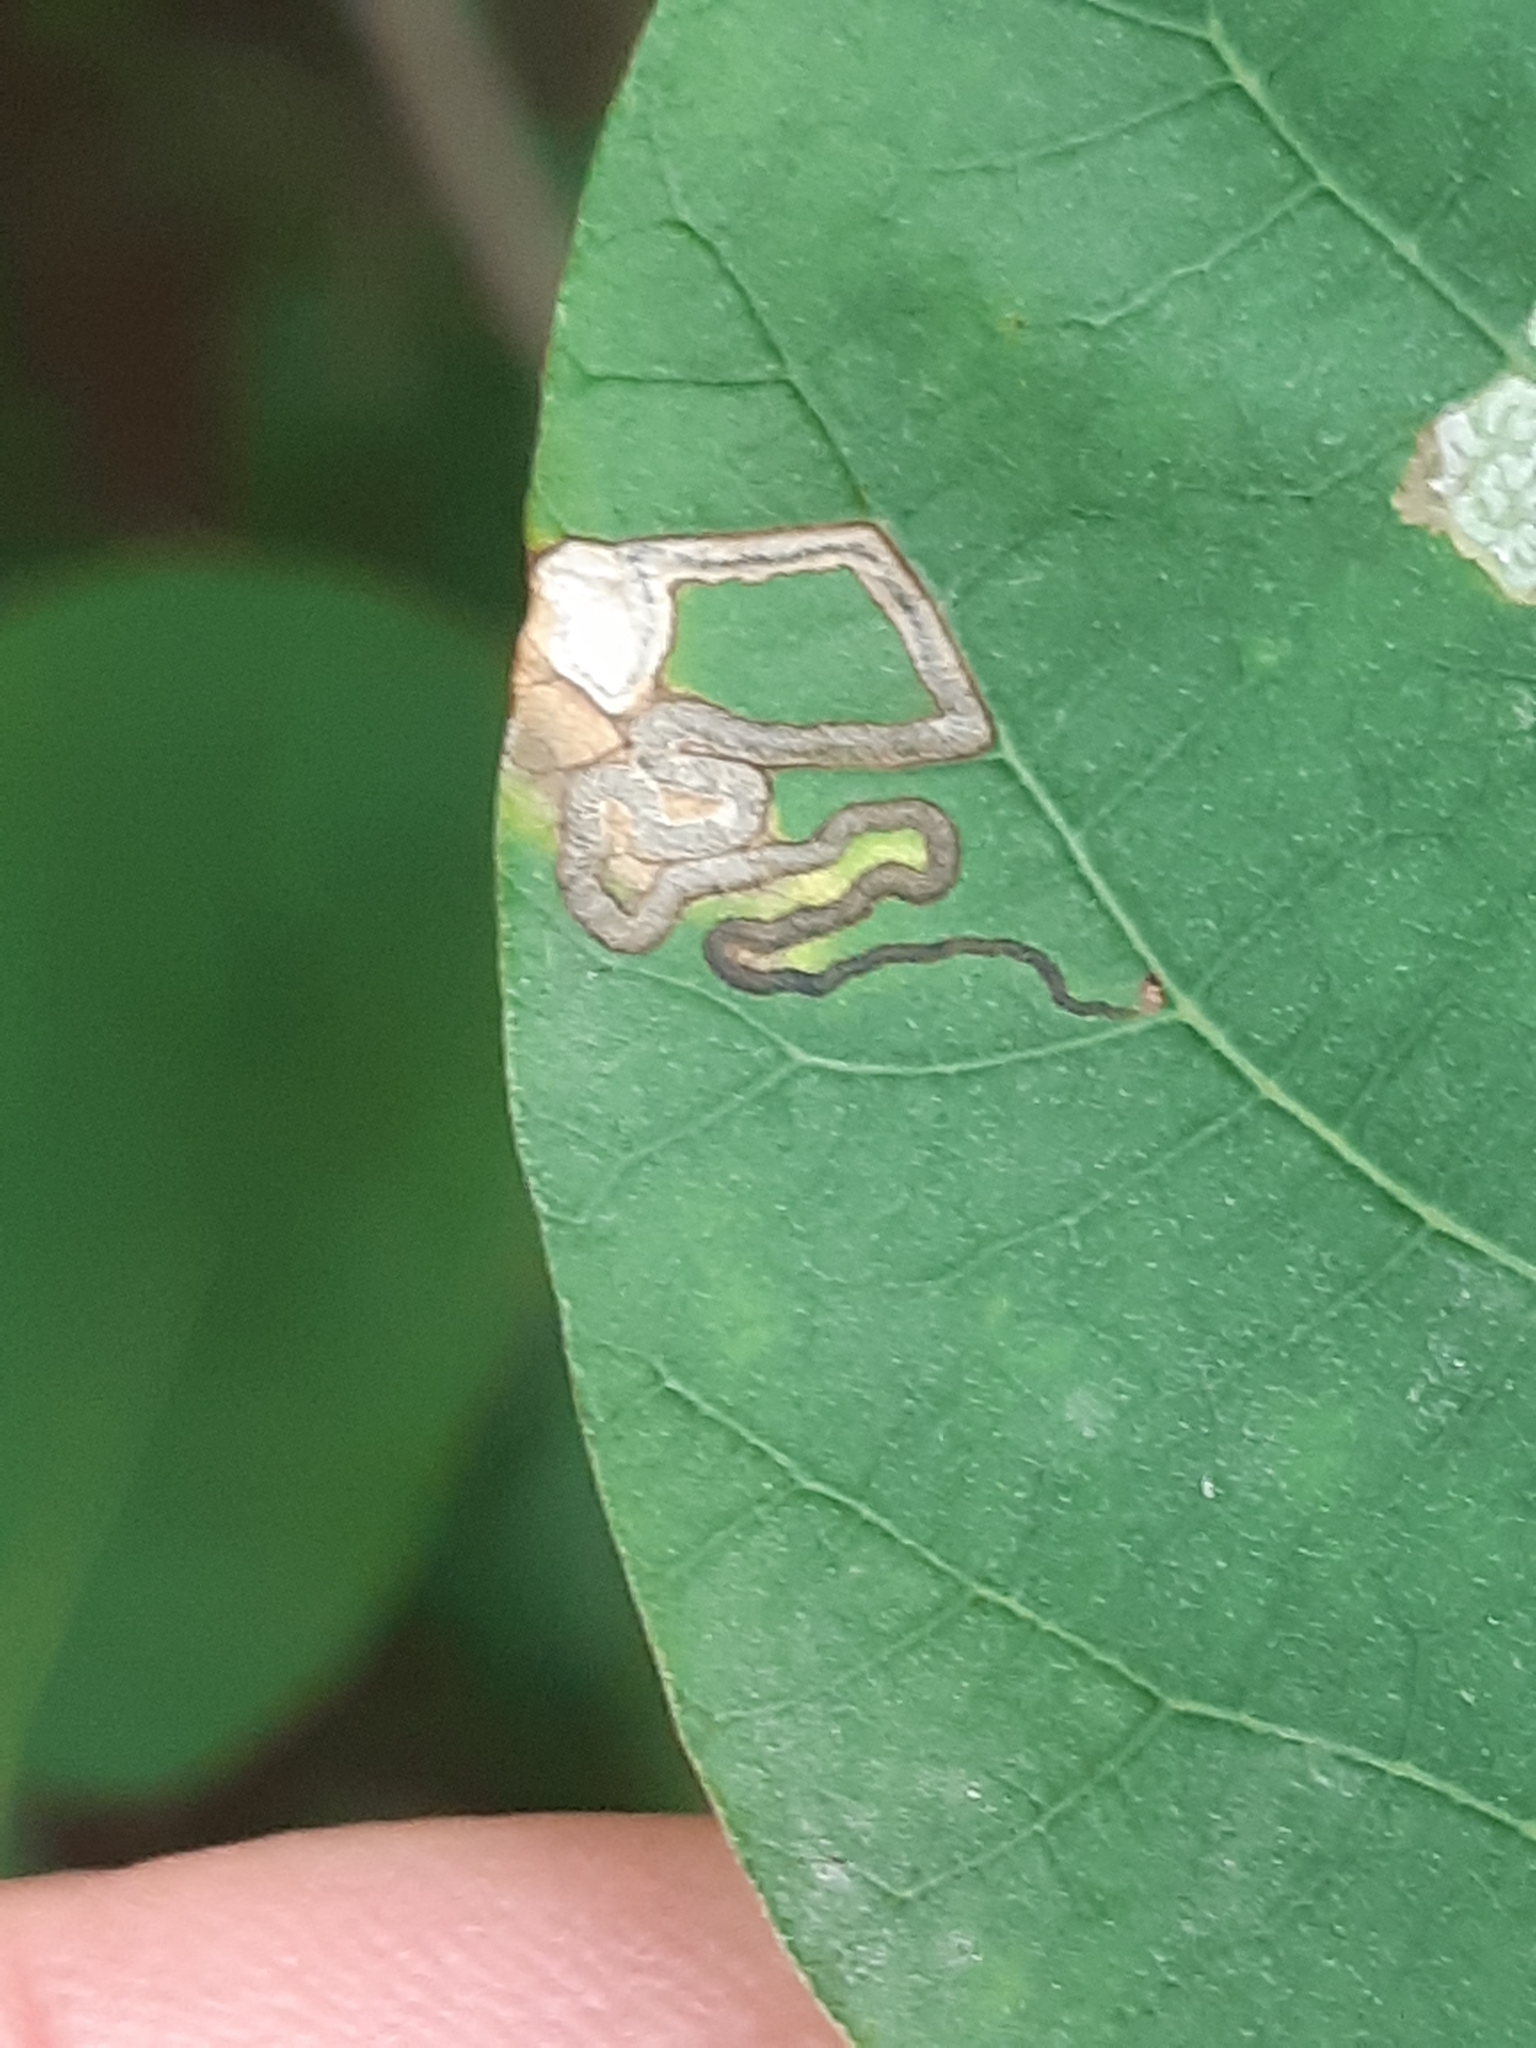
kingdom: Animalia
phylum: Arthropoda
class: Insecta
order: Lepidoptera
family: Nepticulidae
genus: Simplimorpha
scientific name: Simplimorpha promissa
